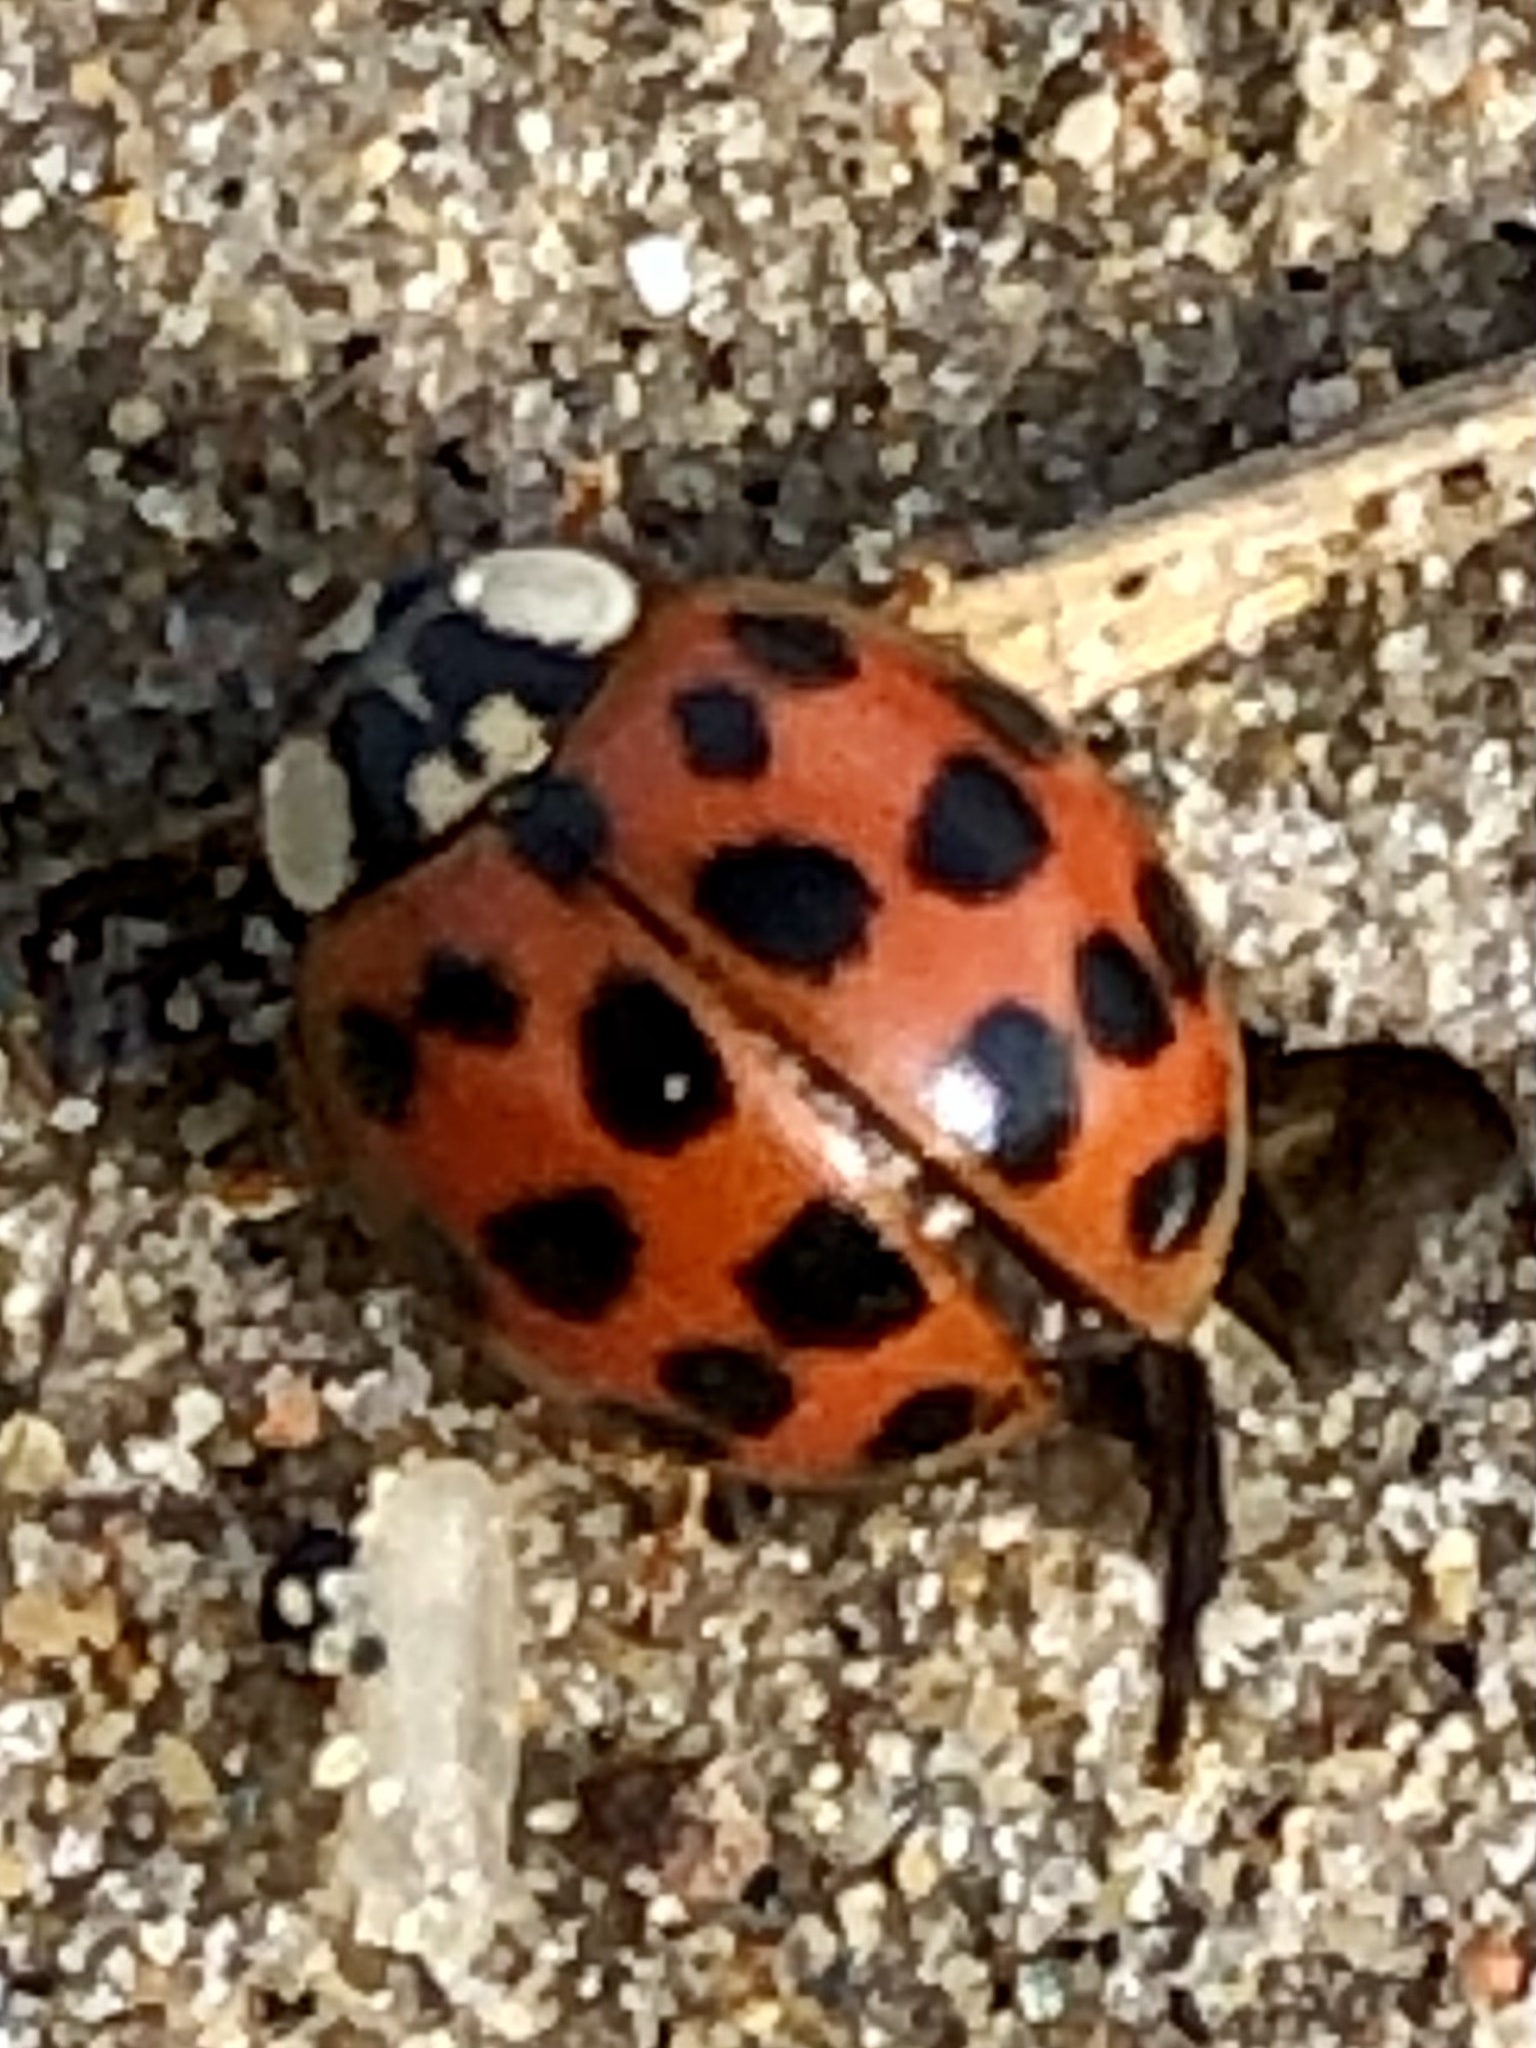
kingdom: Animalia
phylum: Arthropoda
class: Insecta
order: Coleoptera
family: Coccinellidae
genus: Harmonia
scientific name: Harmonia axyridis
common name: Harlequin ladybird
